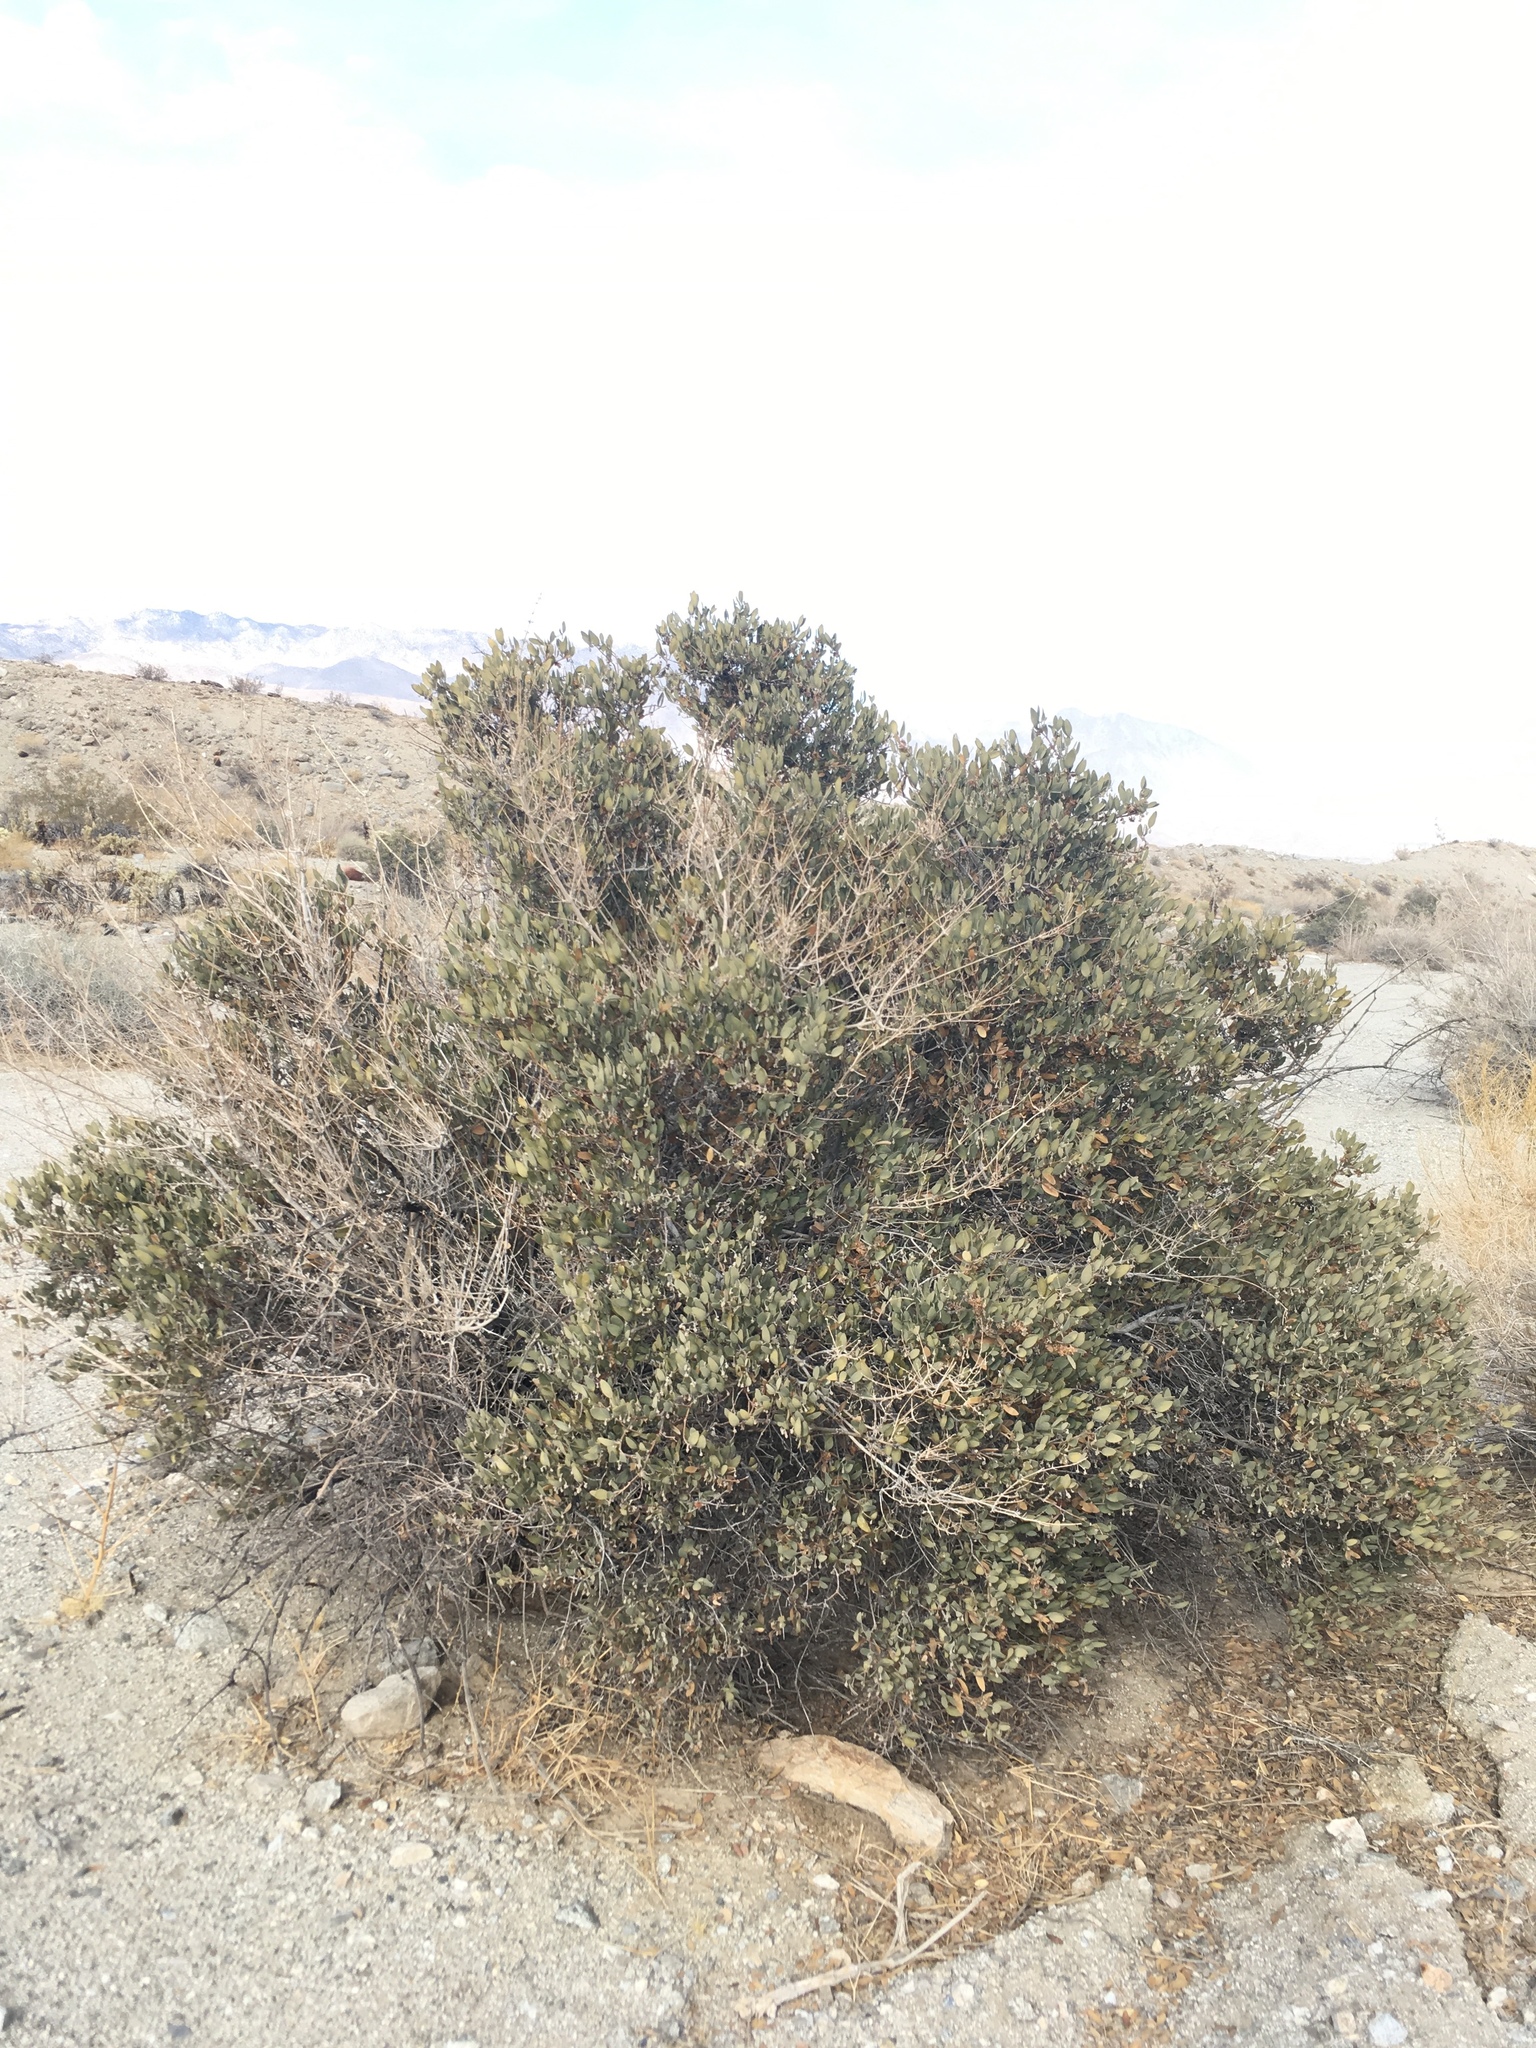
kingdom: Plantae
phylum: Tracheophyta
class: Magnoliopsida
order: Caryophyllales
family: Simmondsiaceae
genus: Simmondsia
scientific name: Simmondsia chinensis
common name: Jojoba
